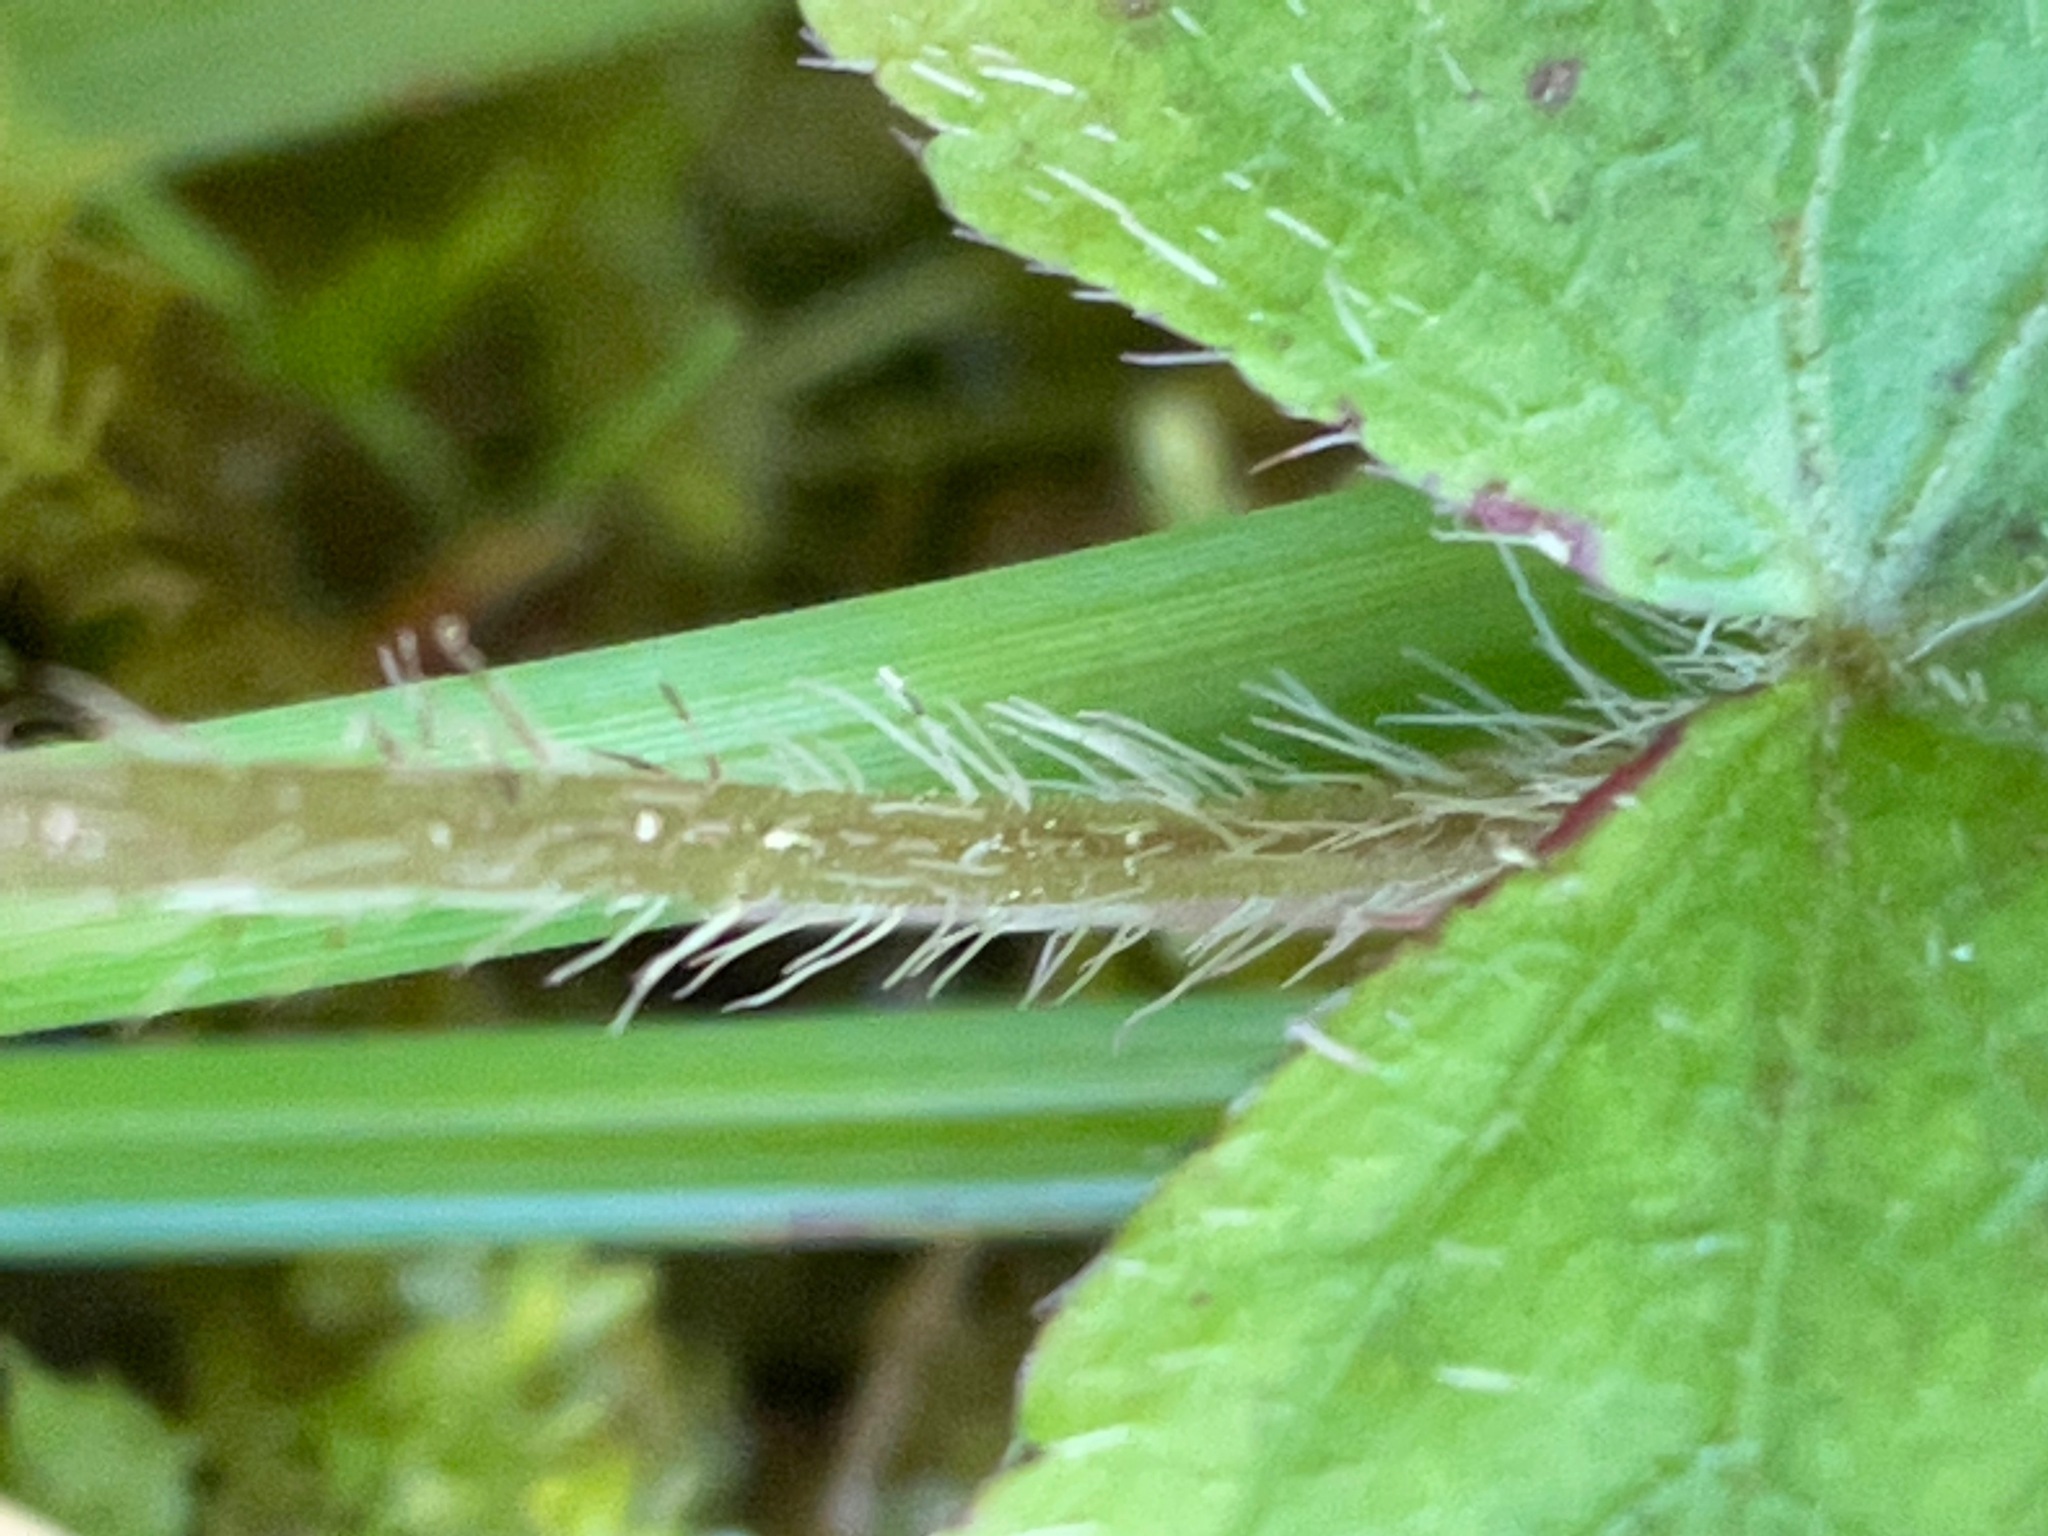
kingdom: Plantae
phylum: Tracheophyta
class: Magnoliopsida
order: Saxifragales
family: Saxifragaceae
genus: Mitella
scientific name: Mitella diphylla
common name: Coolwort
